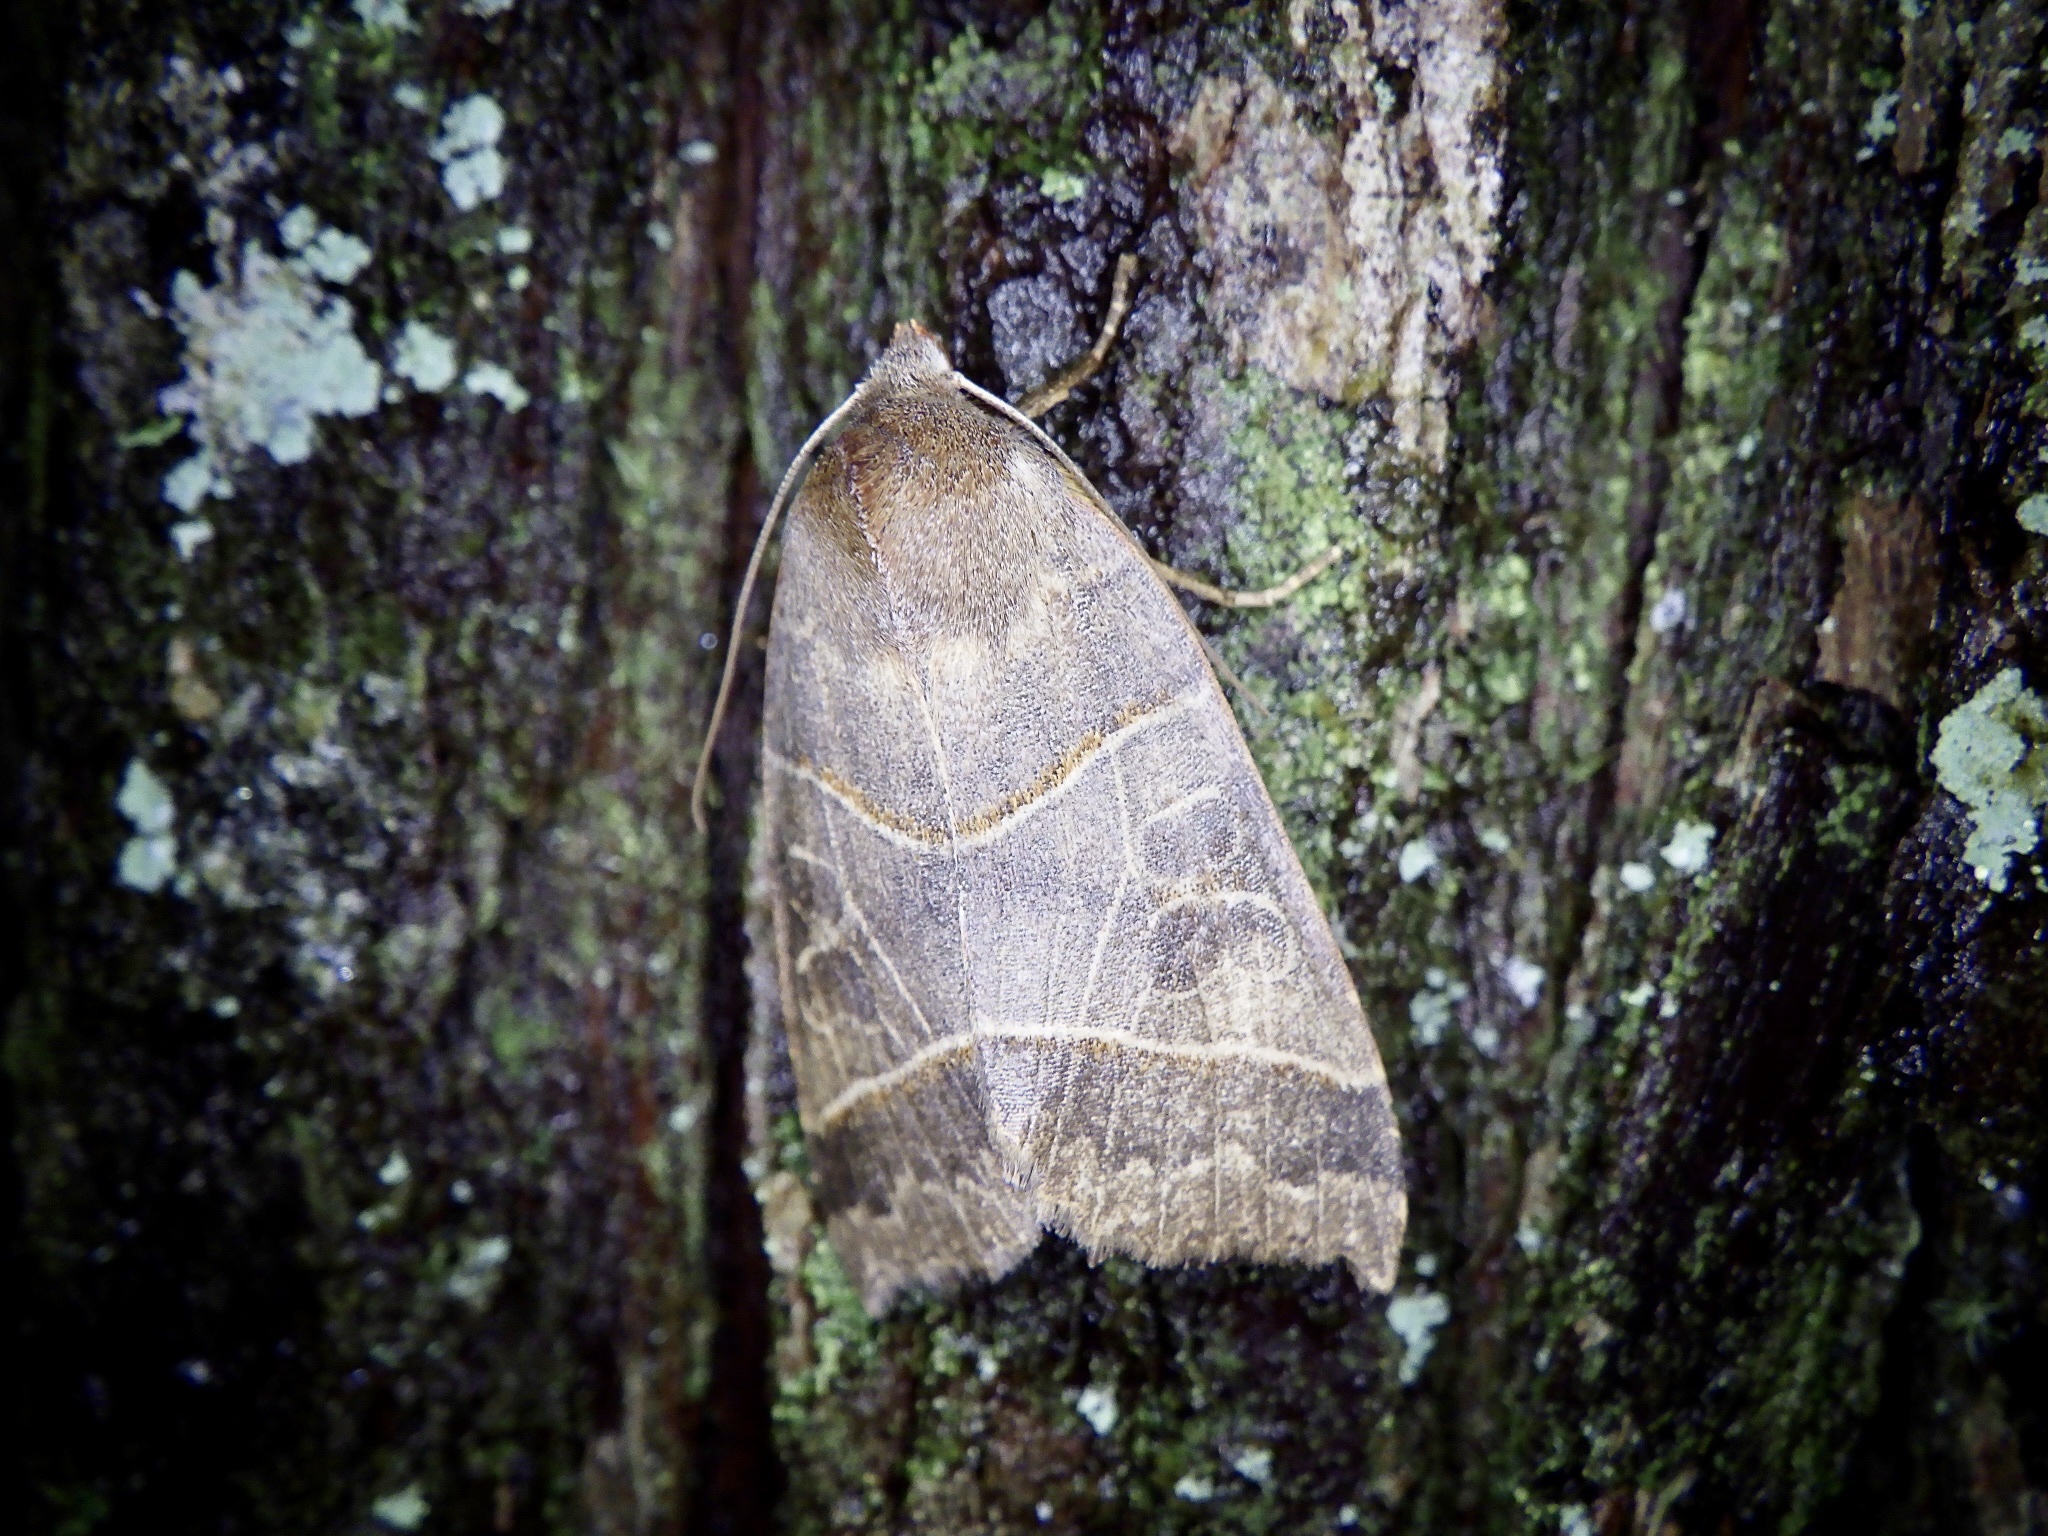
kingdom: Animalia
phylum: Arthropoda
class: Insecta
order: Lepidoptera
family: Noctuidae
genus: Telorta
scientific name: Telorta acuminata
